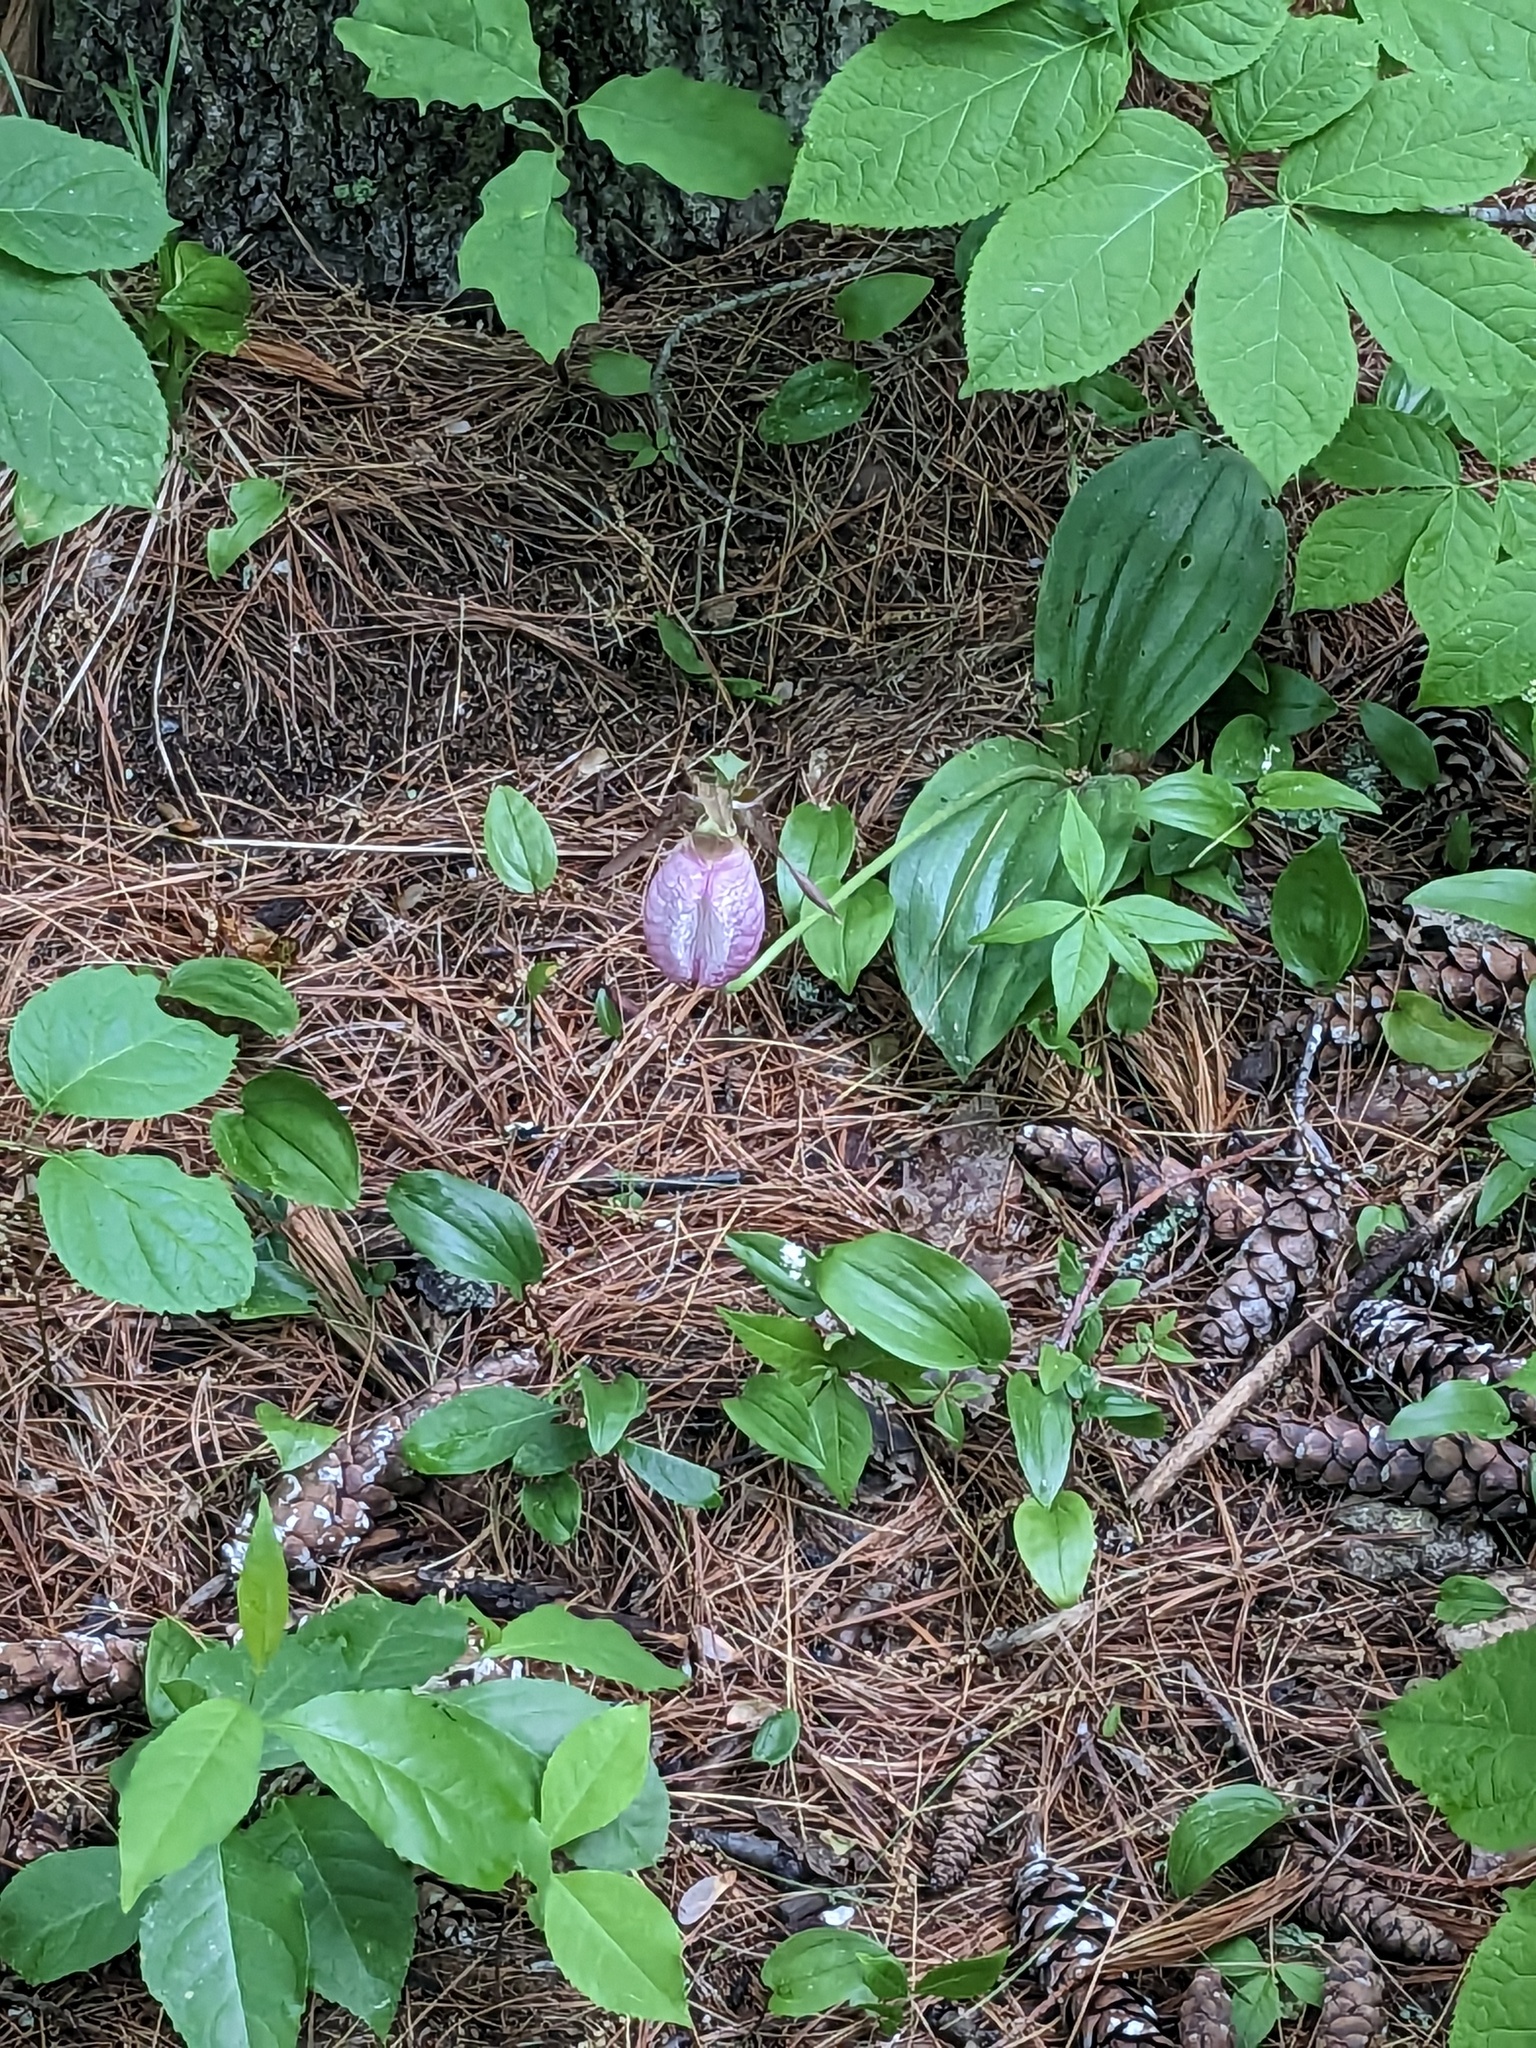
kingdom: Plantae
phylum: Tracheophyta
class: Liliopsida
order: Asparagales
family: Orchidaceae
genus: Cypripedium
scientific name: Cypripedium acaule
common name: Pink lady's-slipper
